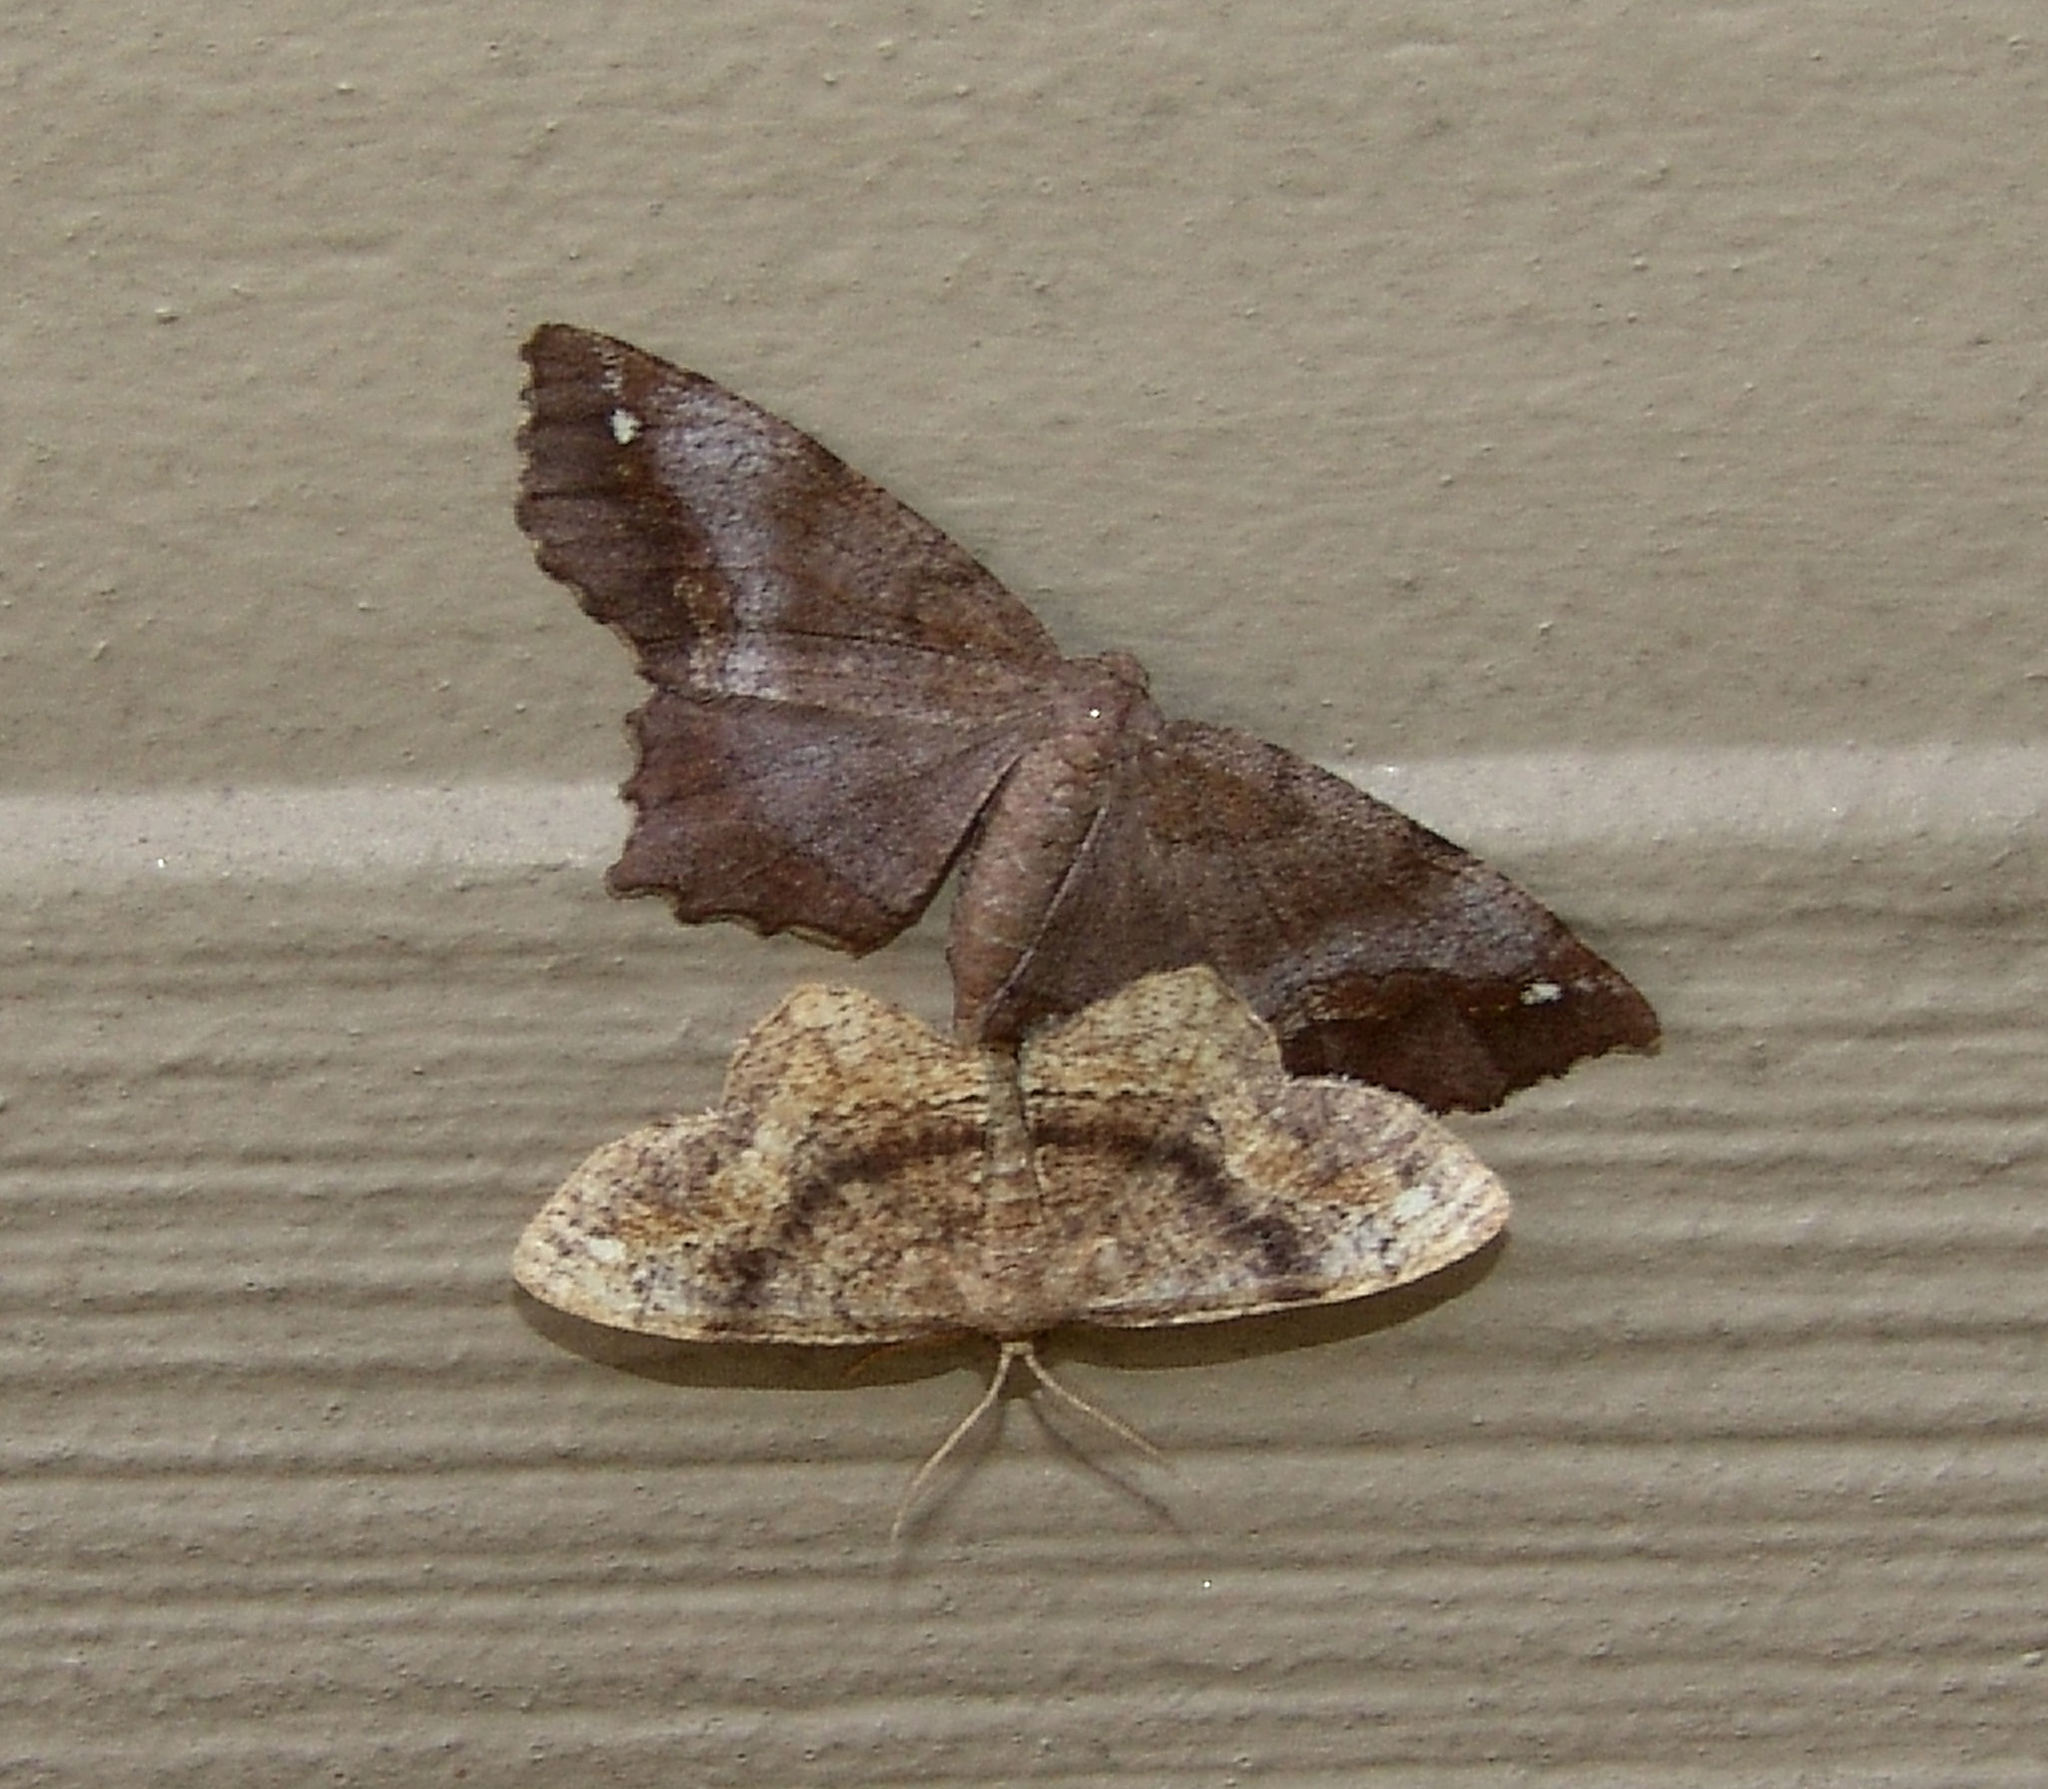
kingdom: Animalia
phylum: Arthropoda
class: Insecta
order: Lepidoptera
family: Geometridae
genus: Hypagyrtis
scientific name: Hypagyrtis esther
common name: Esther moth
